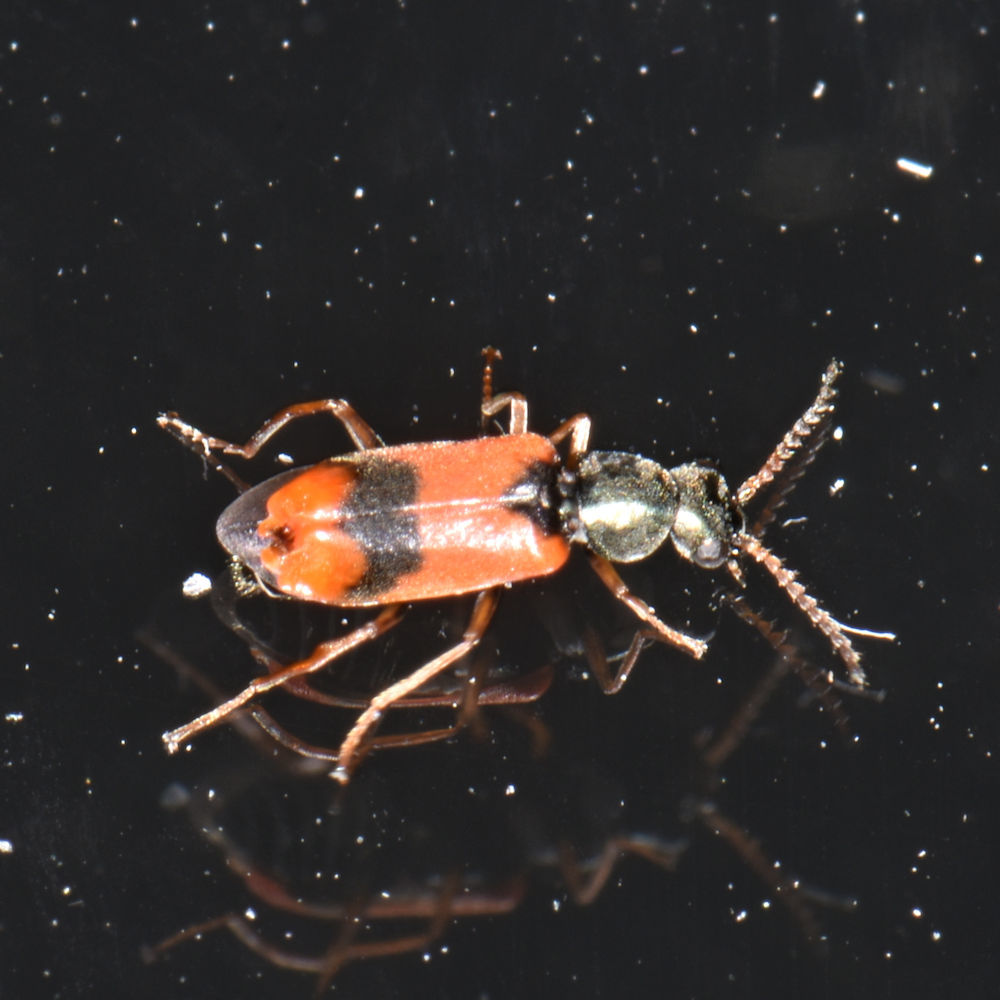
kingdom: Animalia
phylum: Arthropoda
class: Insecta
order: Coleoptera
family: Melyridae
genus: Anthocomus
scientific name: Anthocomus equestris
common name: Black-banded soft-winged flower beetle
